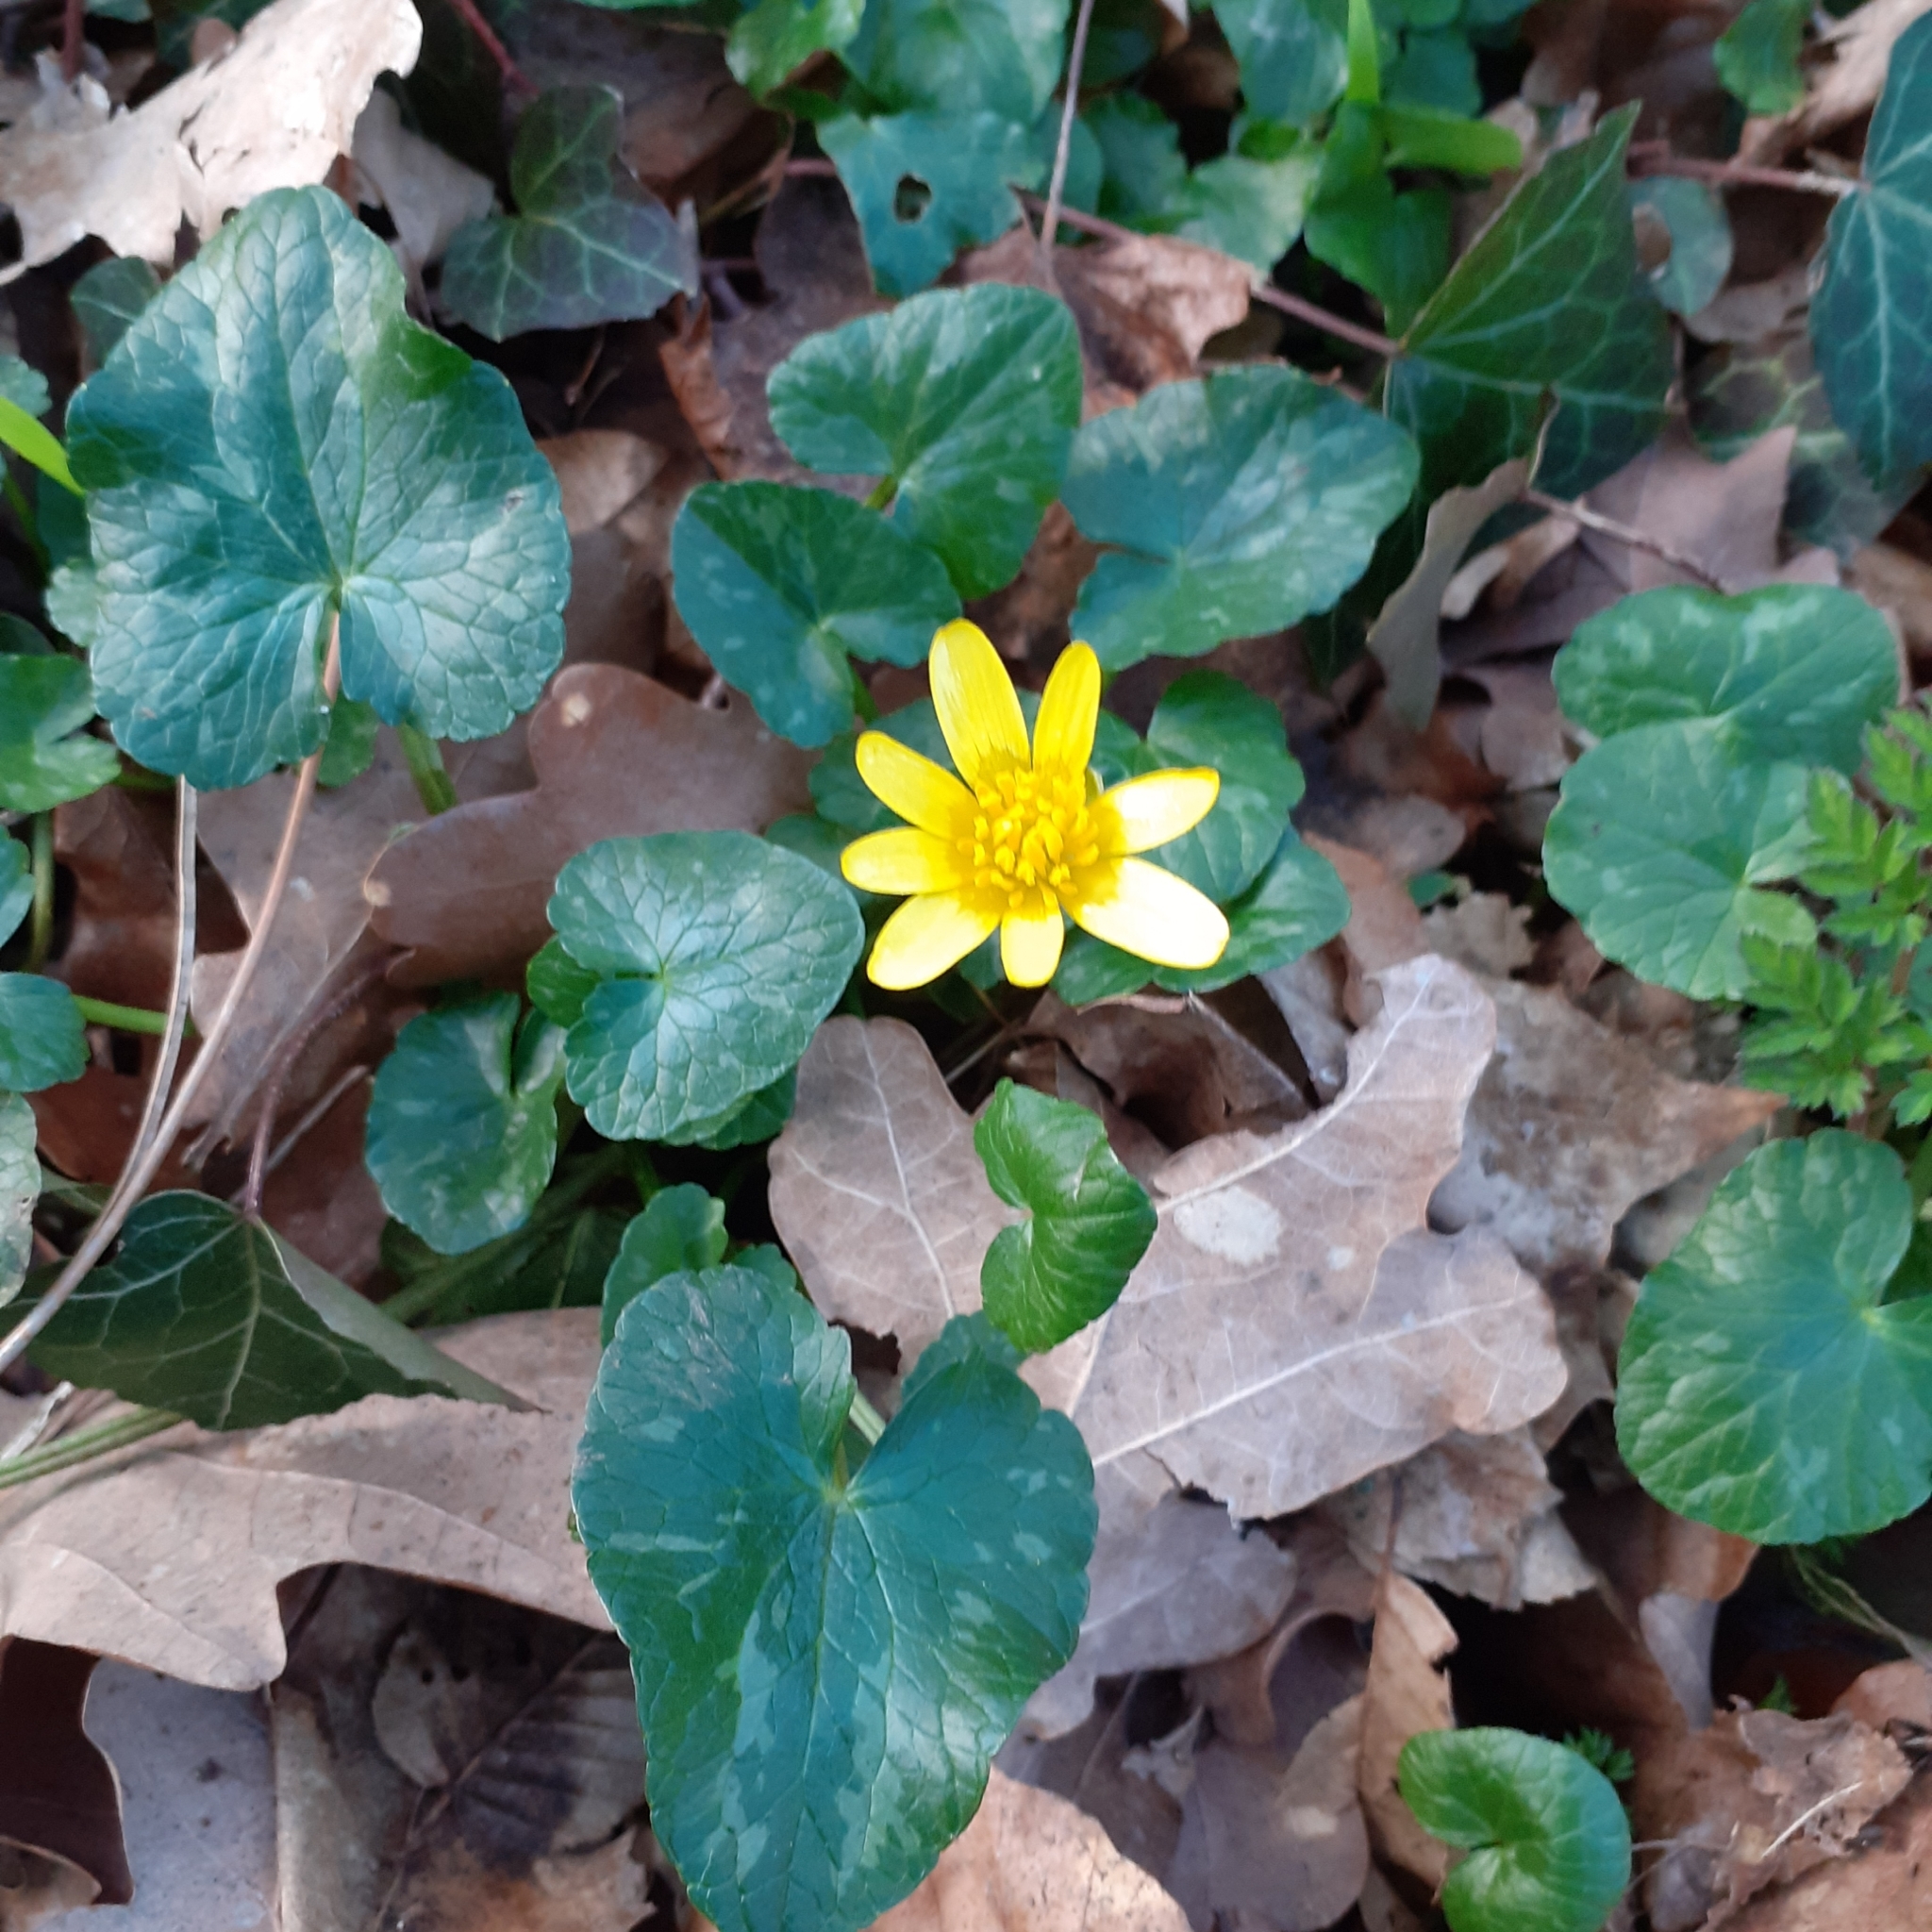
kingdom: Plantae
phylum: Tracheophyta
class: Magnoliopsida
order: Ranunculales
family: Ranunculaceae
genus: Ficaria
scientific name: Ficaria verna
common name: Lesser celandine
